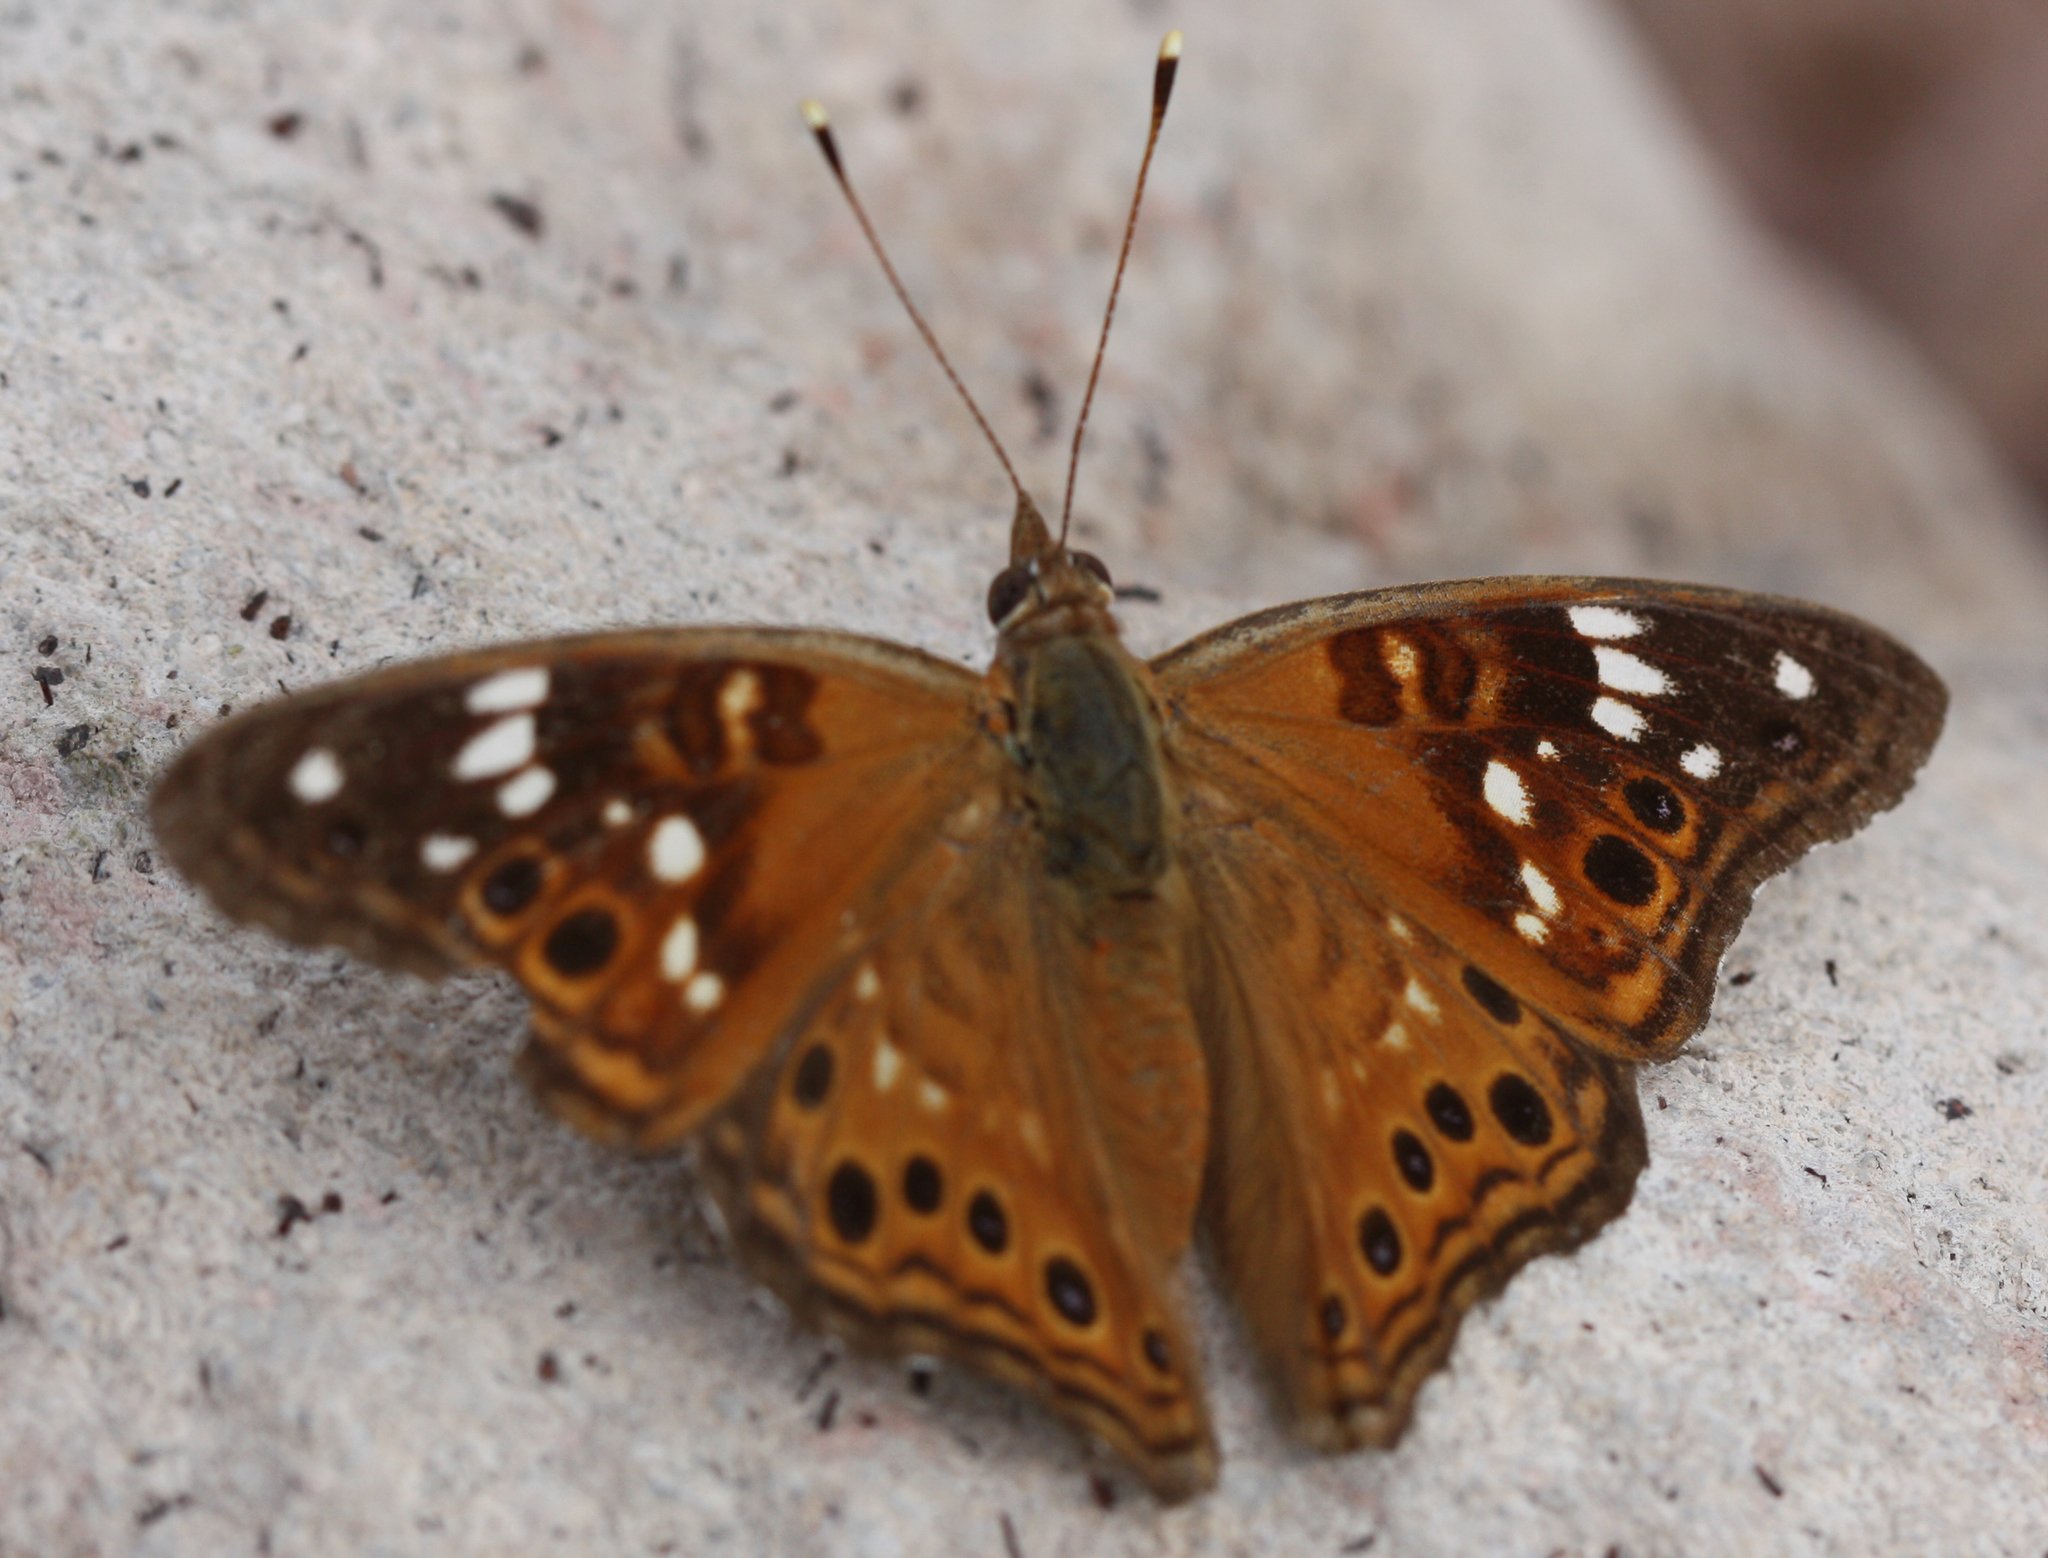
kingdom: Animalia
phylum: Arthropoda
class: Insecta
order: Lepidoptera
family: Nymphalidae
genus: Asterocampa
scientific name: Asterocampa leilia
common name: Empress leilia
